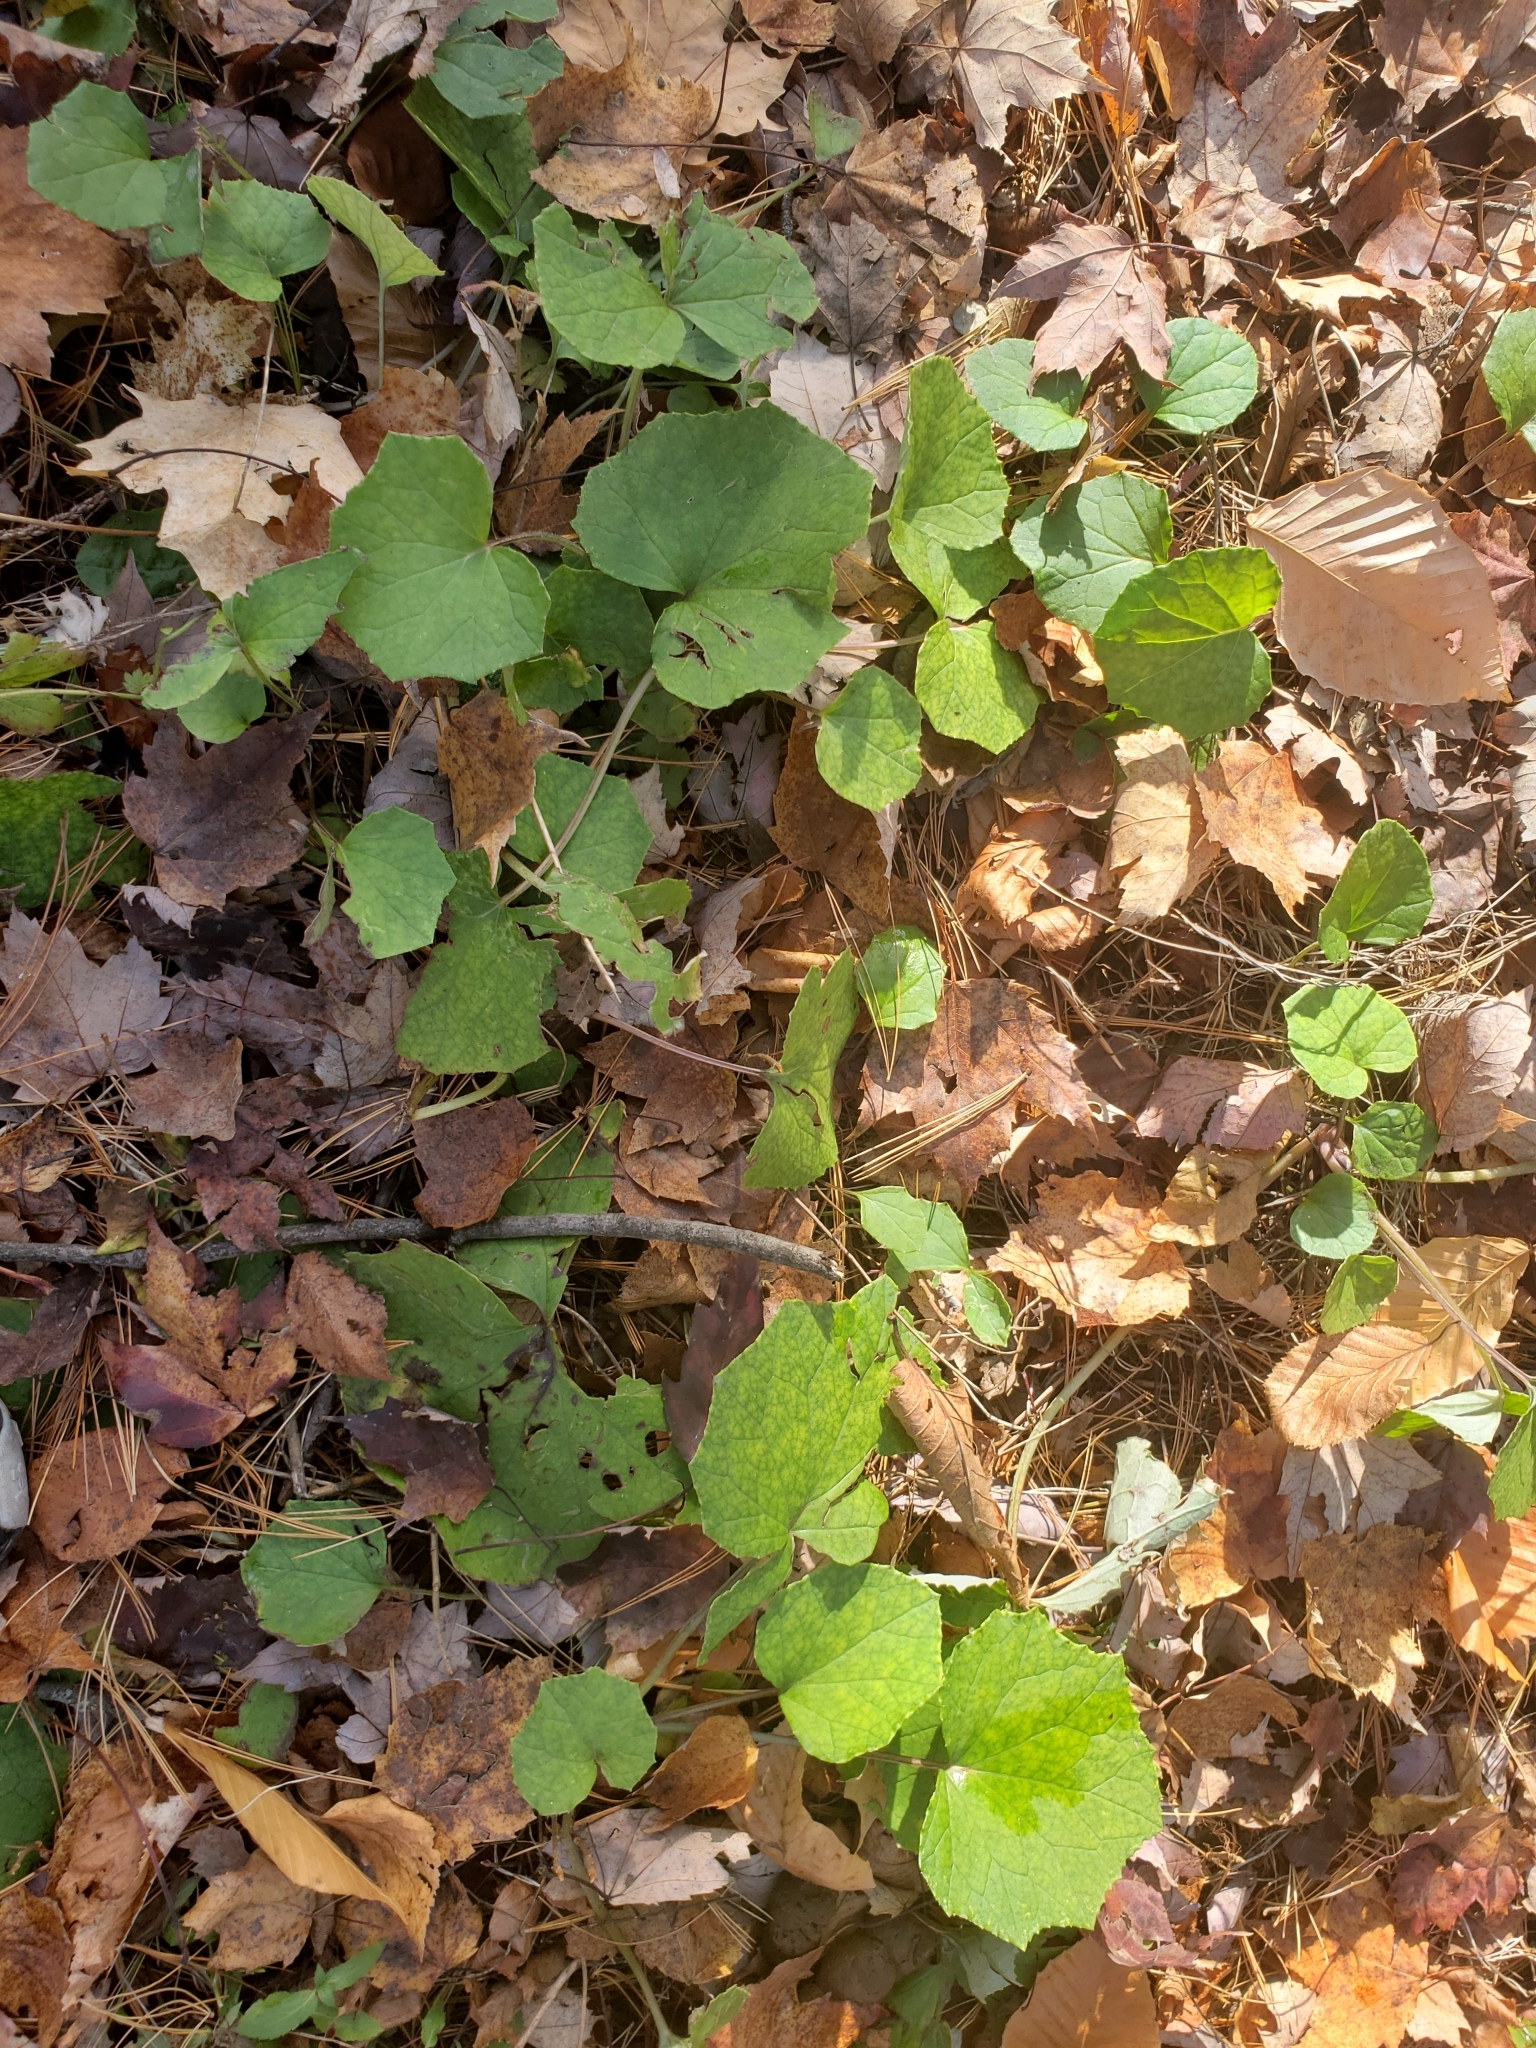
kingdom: Plantae
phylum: Tracheophyta
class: Magnoliopsida
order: Asterales
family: Asteraceae
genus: Tussilago
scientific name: Tussilago farfara
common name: Coltsfoot
